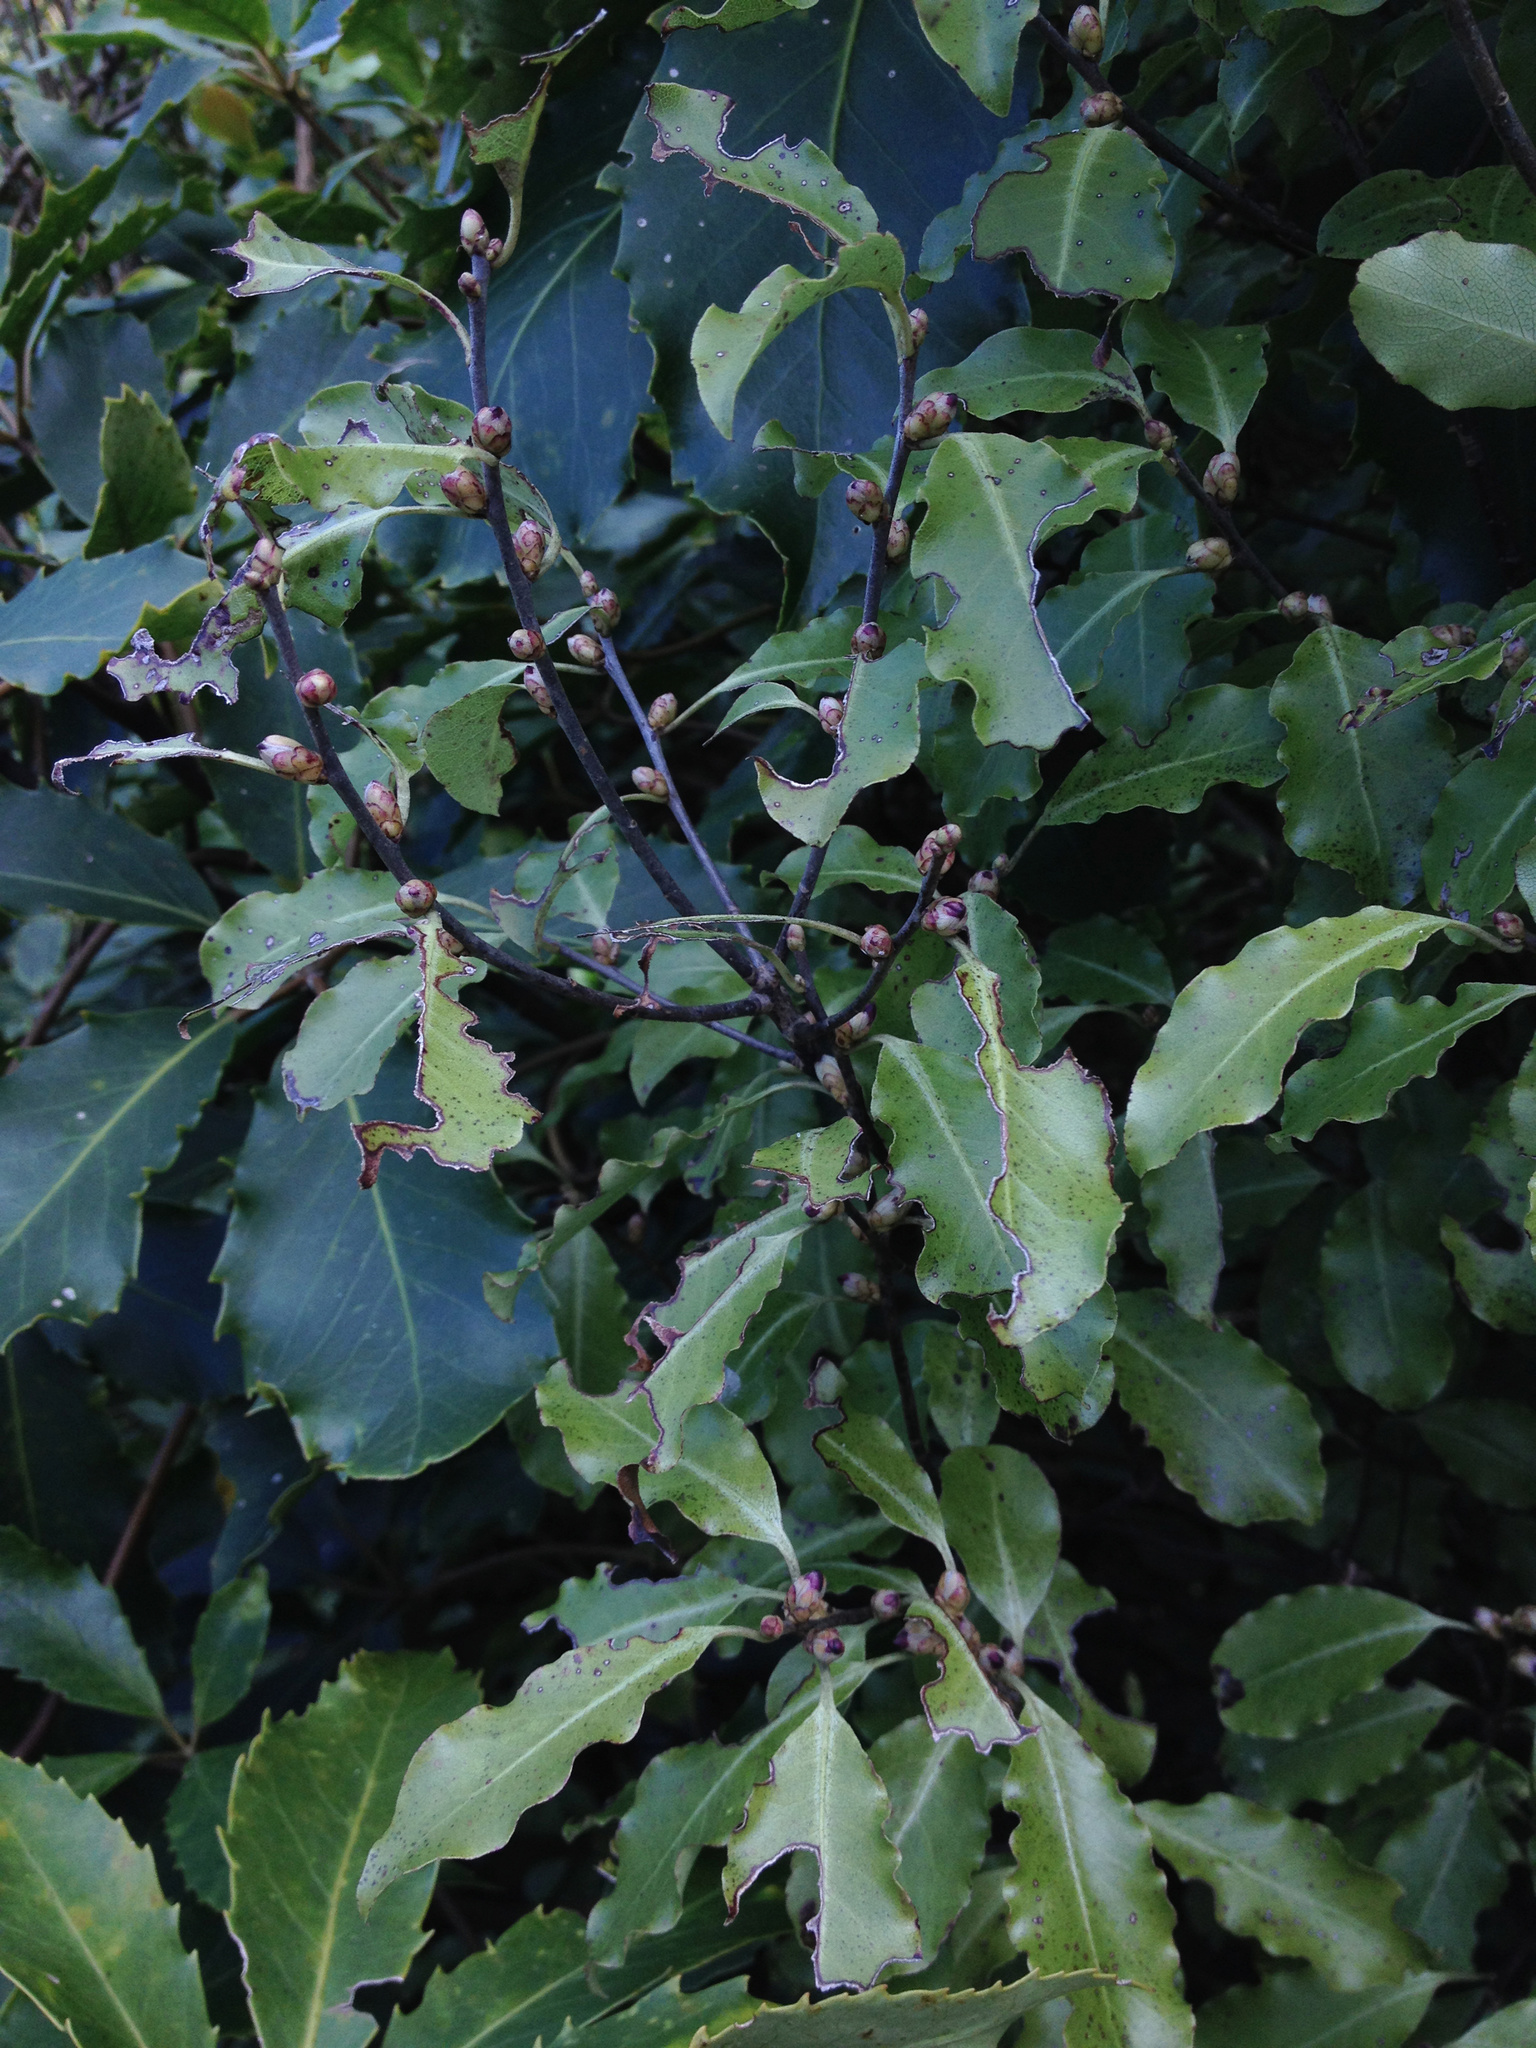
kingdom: Plantae
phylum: Tracheophyta
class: Magnoliopsida
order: Apiales
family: Pittosporaceae
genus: Pittosporum
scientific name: Pittosporum tenuifolium
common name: Kohuhu
